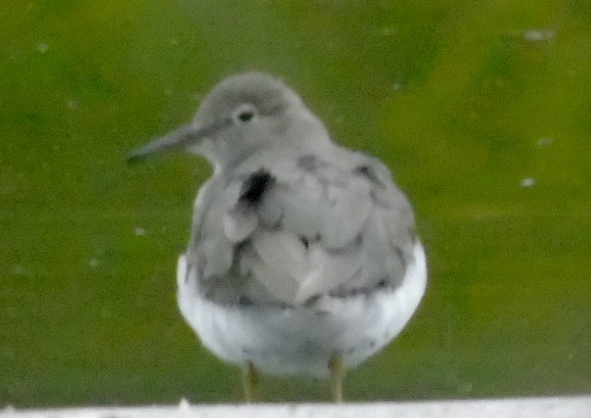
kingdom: Animalia
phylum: Chordata
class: Aves
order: Charadriiformes
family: Scolopacidae
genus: Actitis
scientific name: Actitis macularius
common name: Spotted sandpiper
